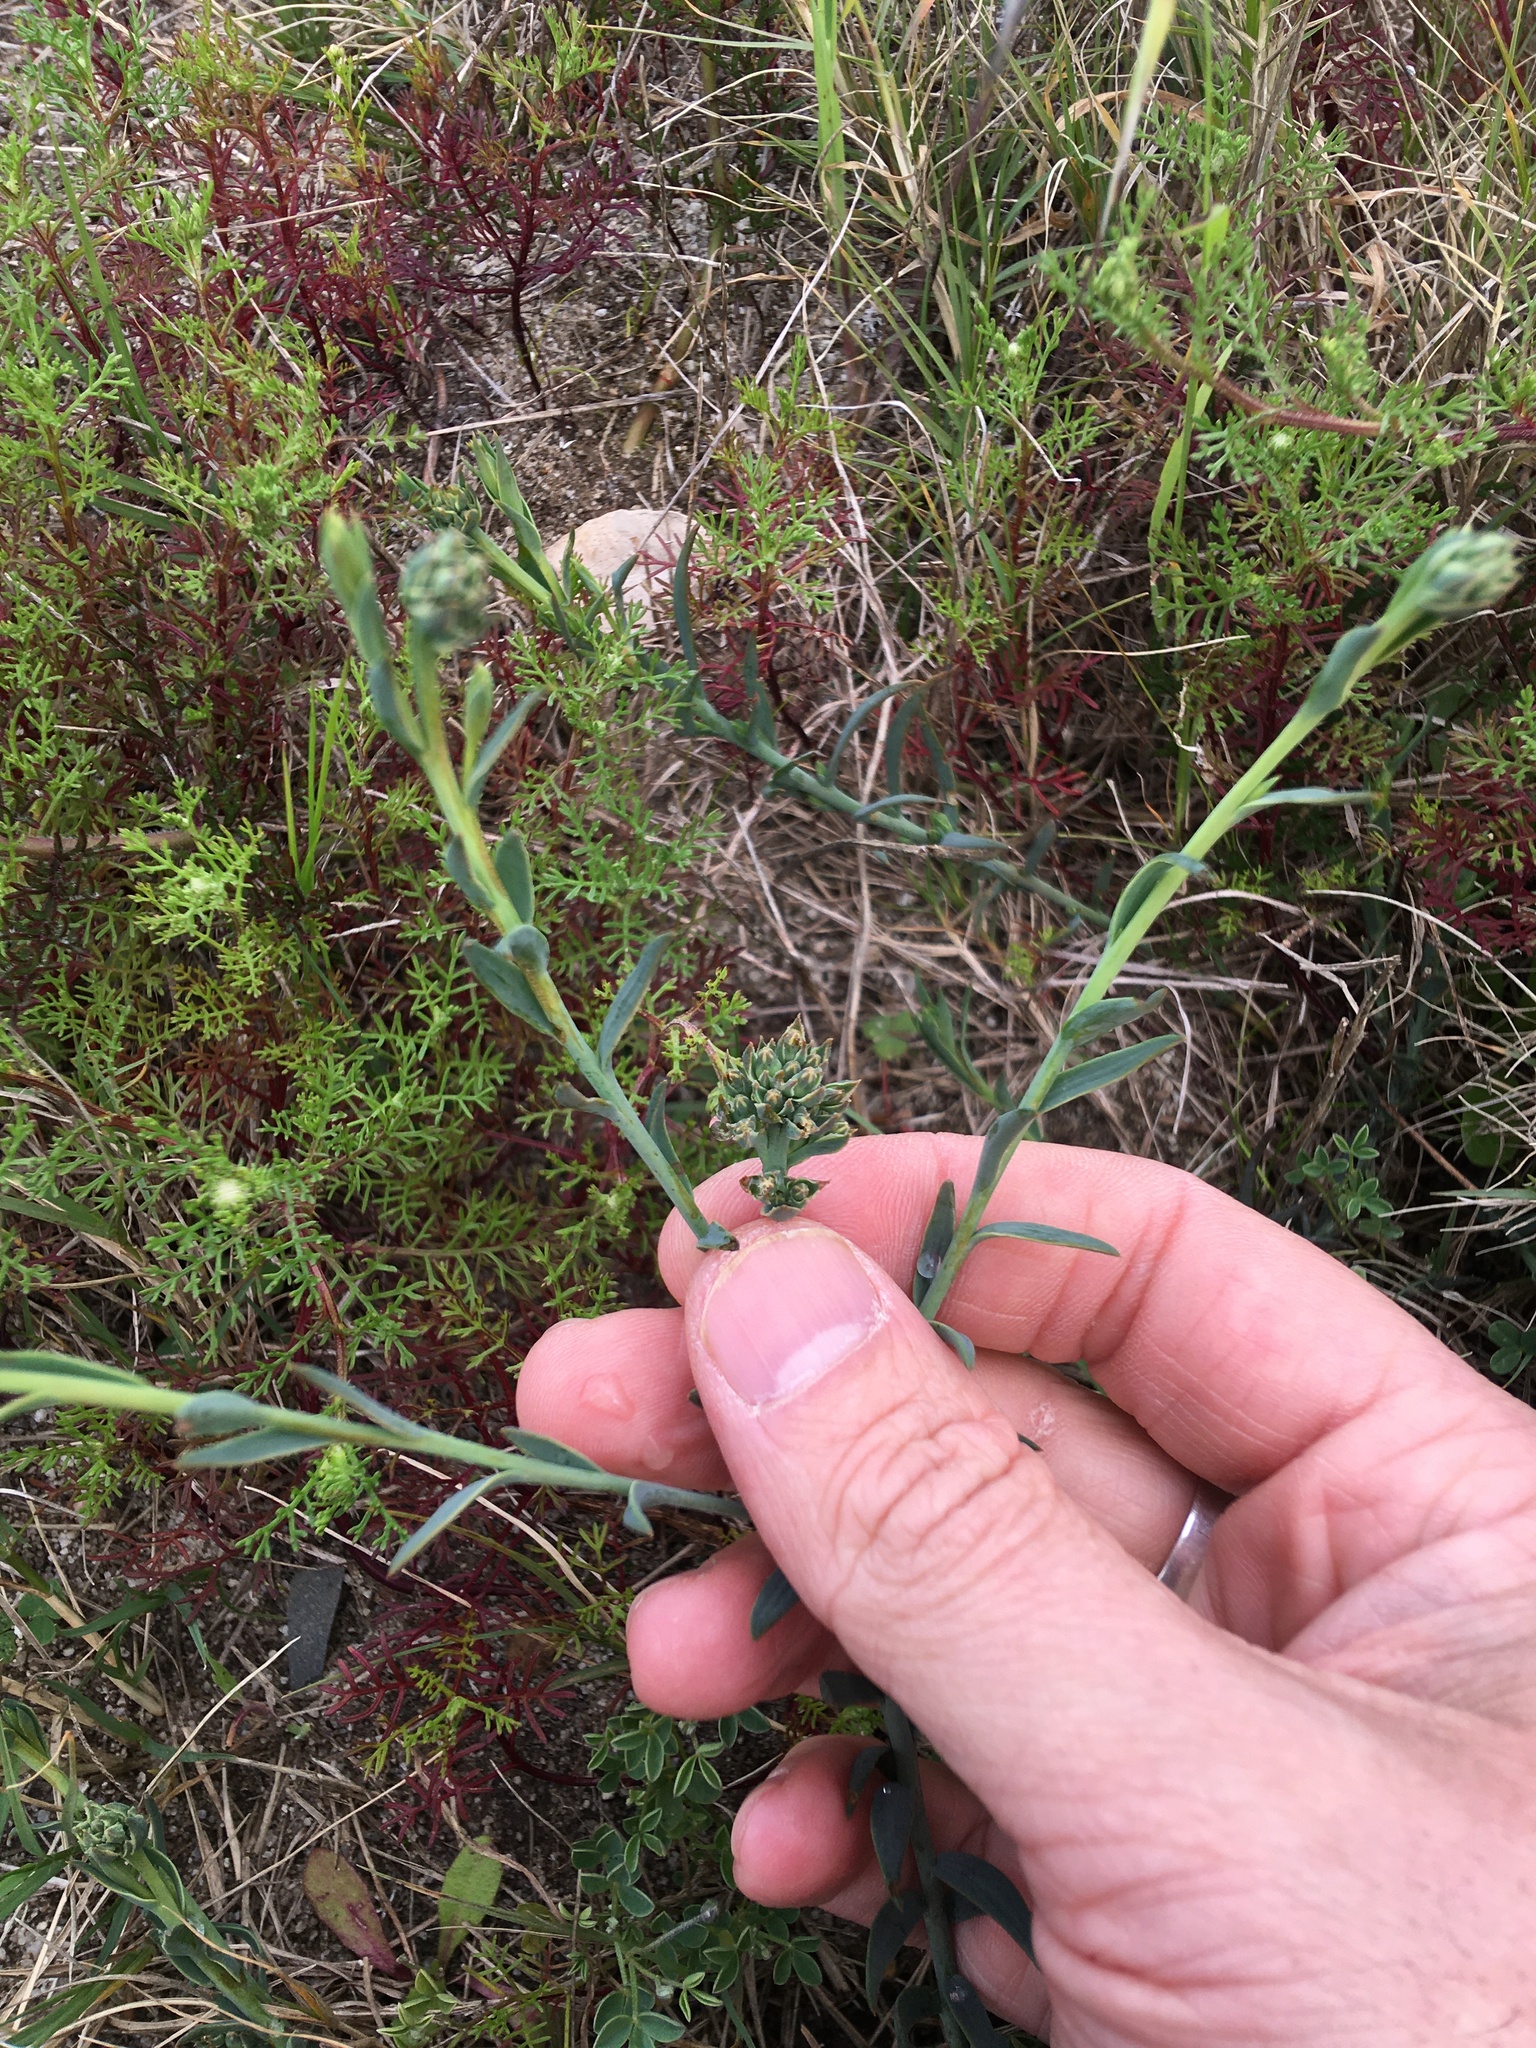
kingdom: Plantae
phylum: Tracheophyta
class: Magnoliopsida
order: Santalales
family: Thesiaceae
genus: Thesium
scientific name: Thesium
